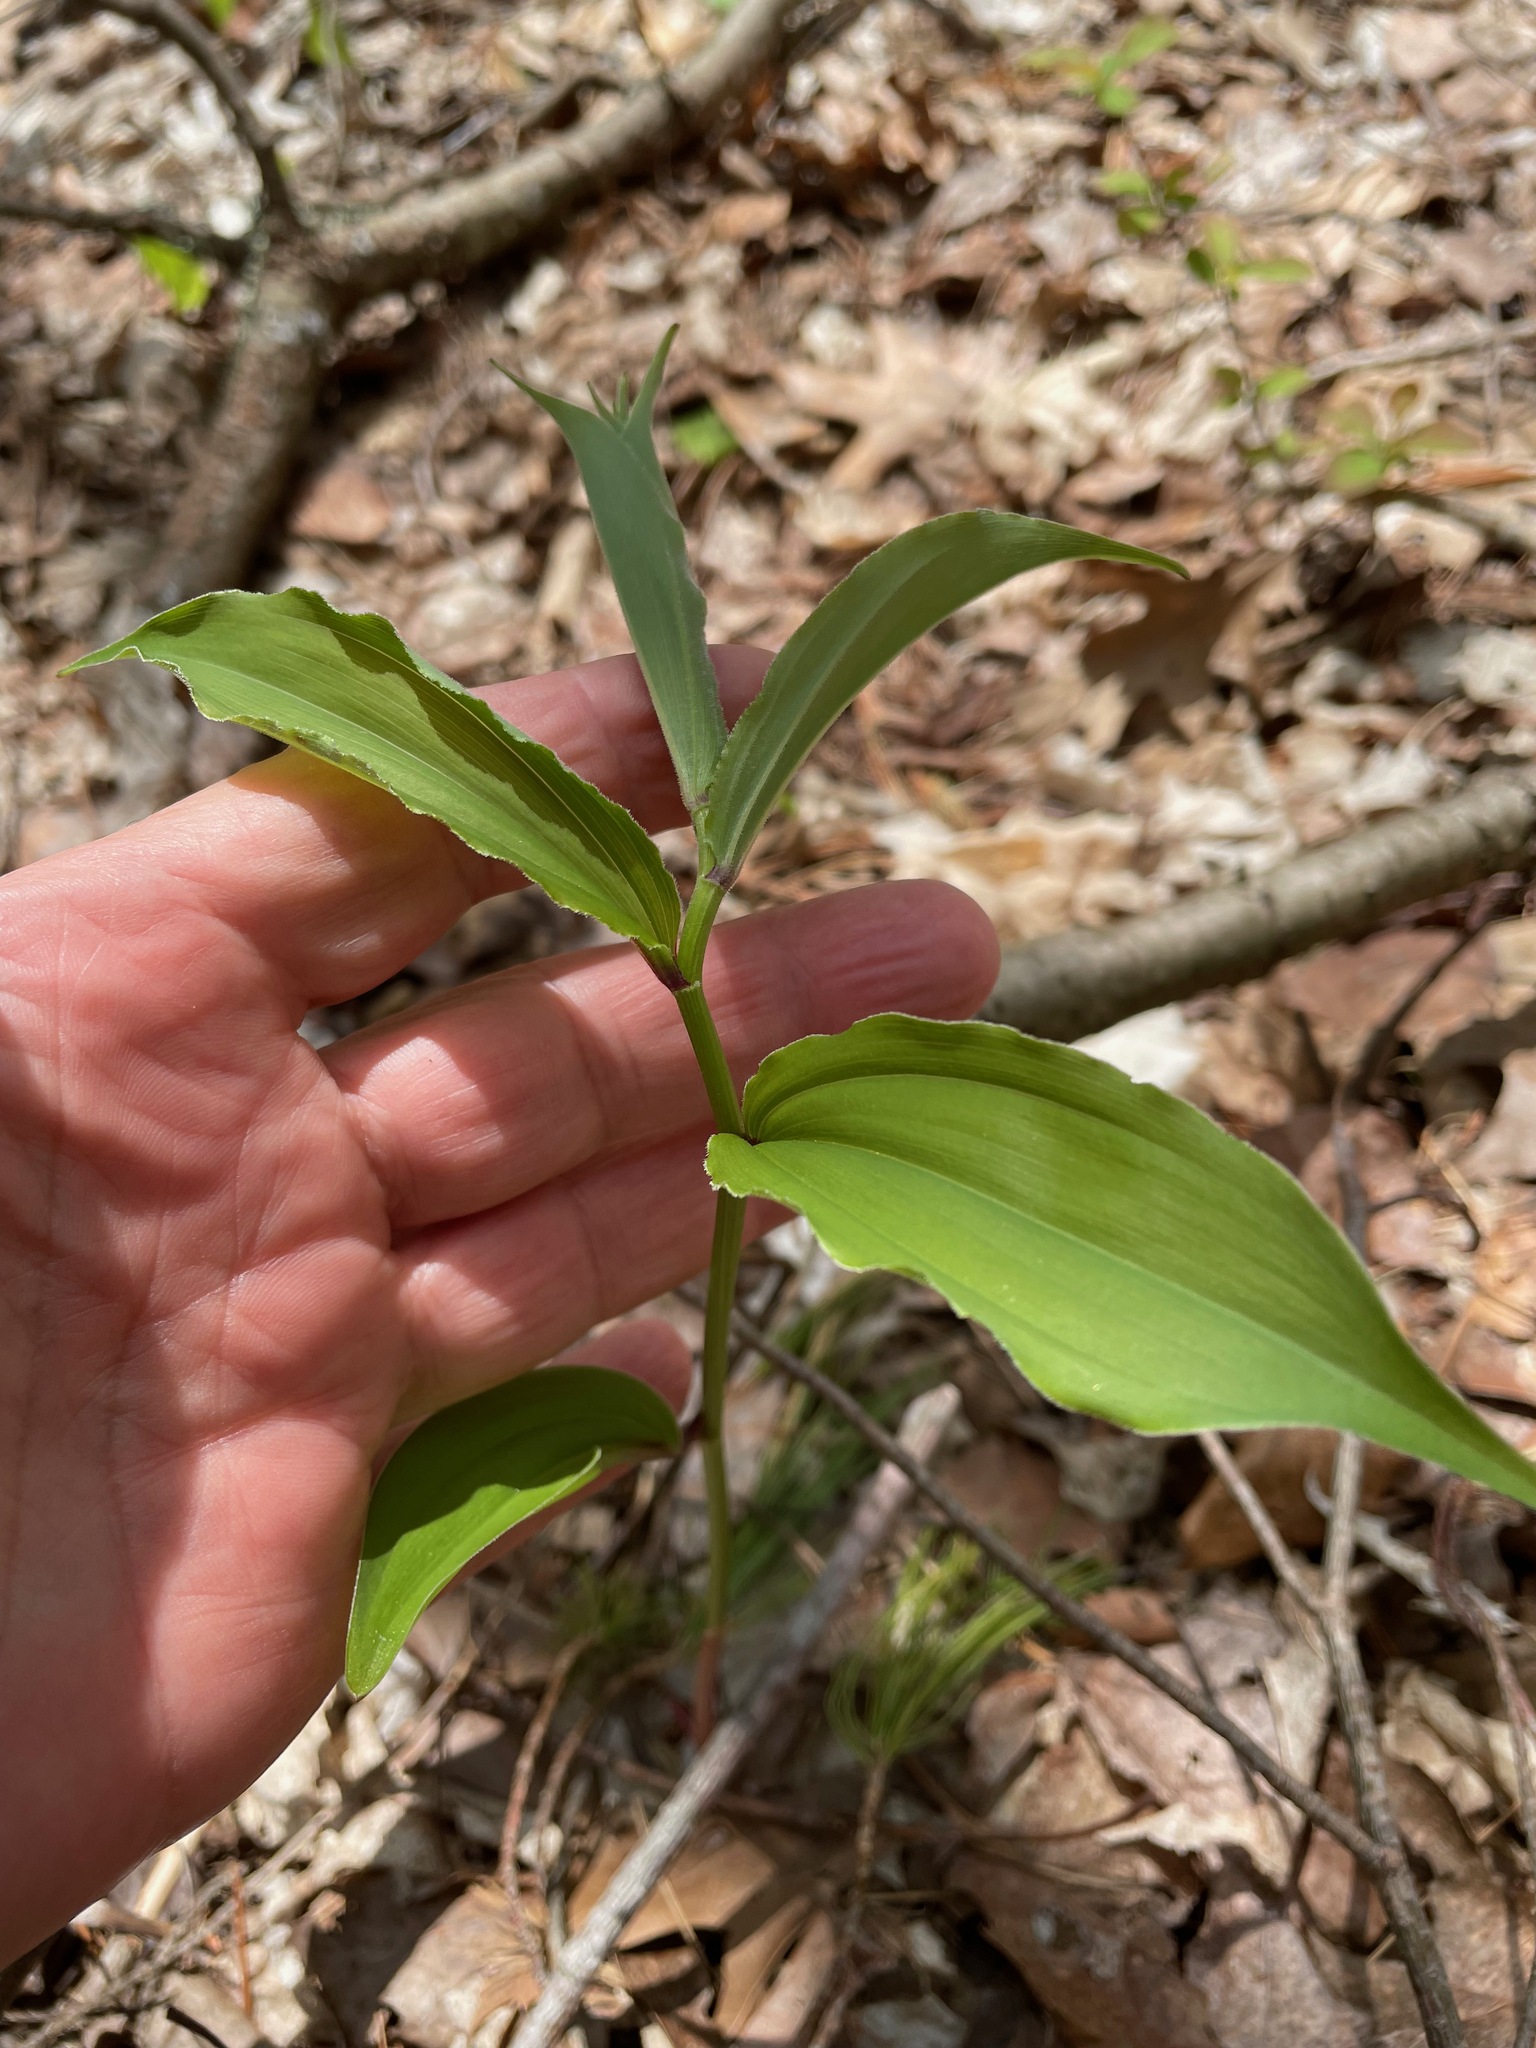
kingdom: Plantae
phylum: Tracheophyta
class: Liliopsida
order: Asparagales
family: Asparagaceae
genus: Maianthemum
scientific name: Maianthemum racemosum
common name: False spikenard
